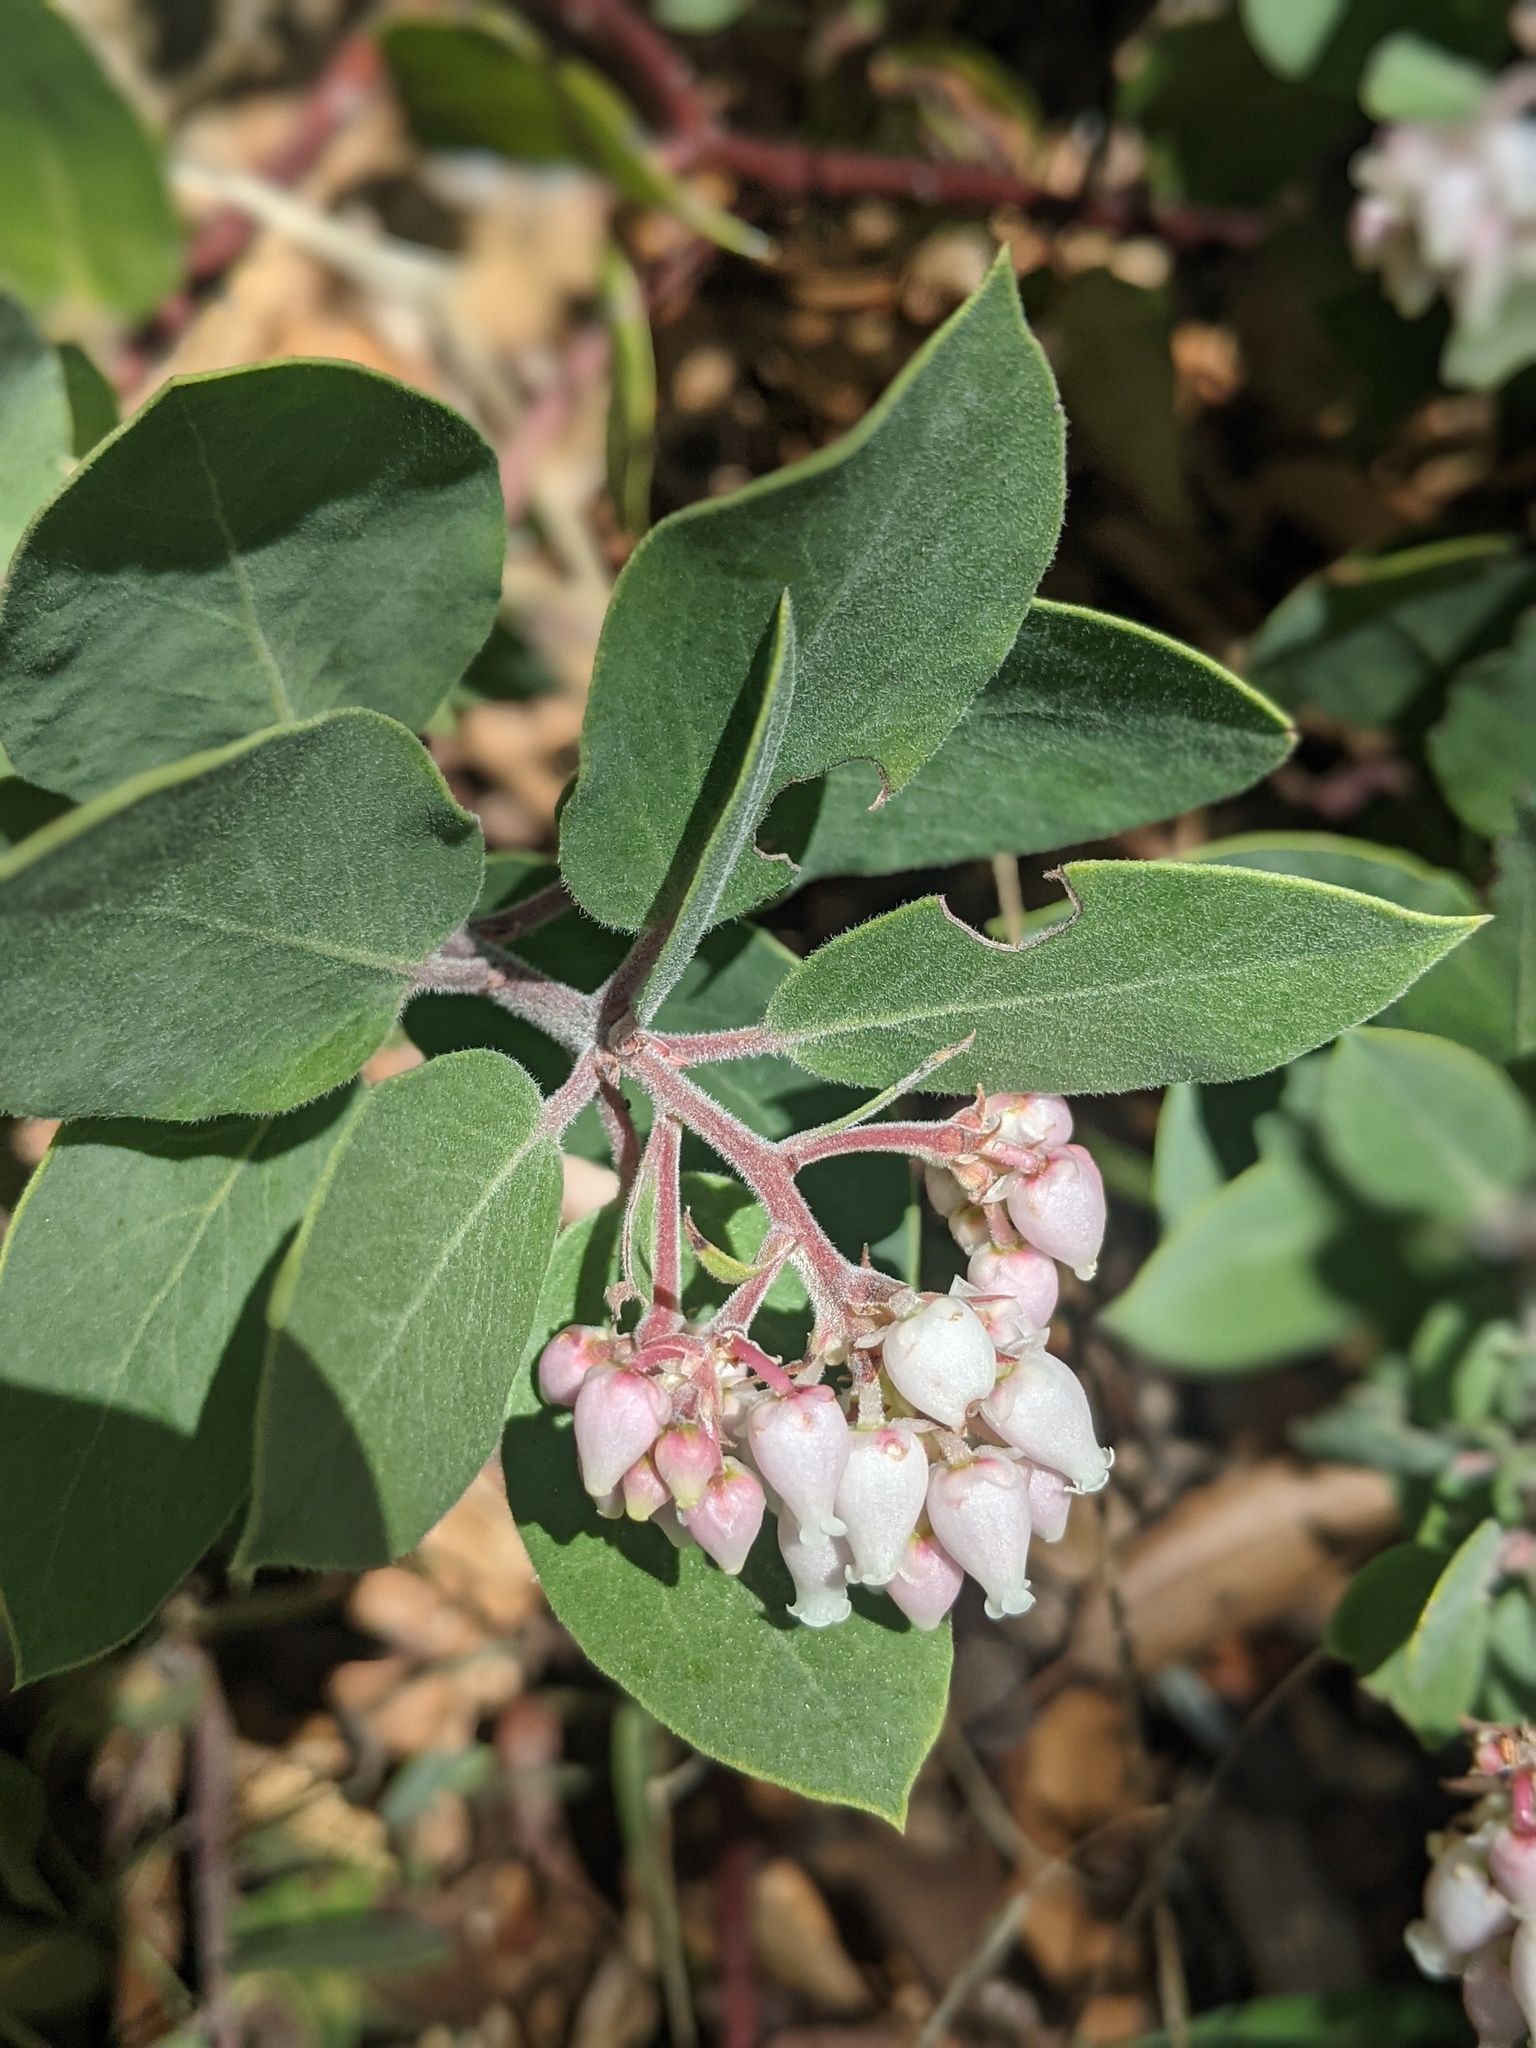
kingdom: Plantae
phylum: Tracheophyta
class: Magnoliopsida
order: Ericales
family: Ericaceae
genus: Arctostaphylos
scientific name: Arctostaphylos glandulosa
